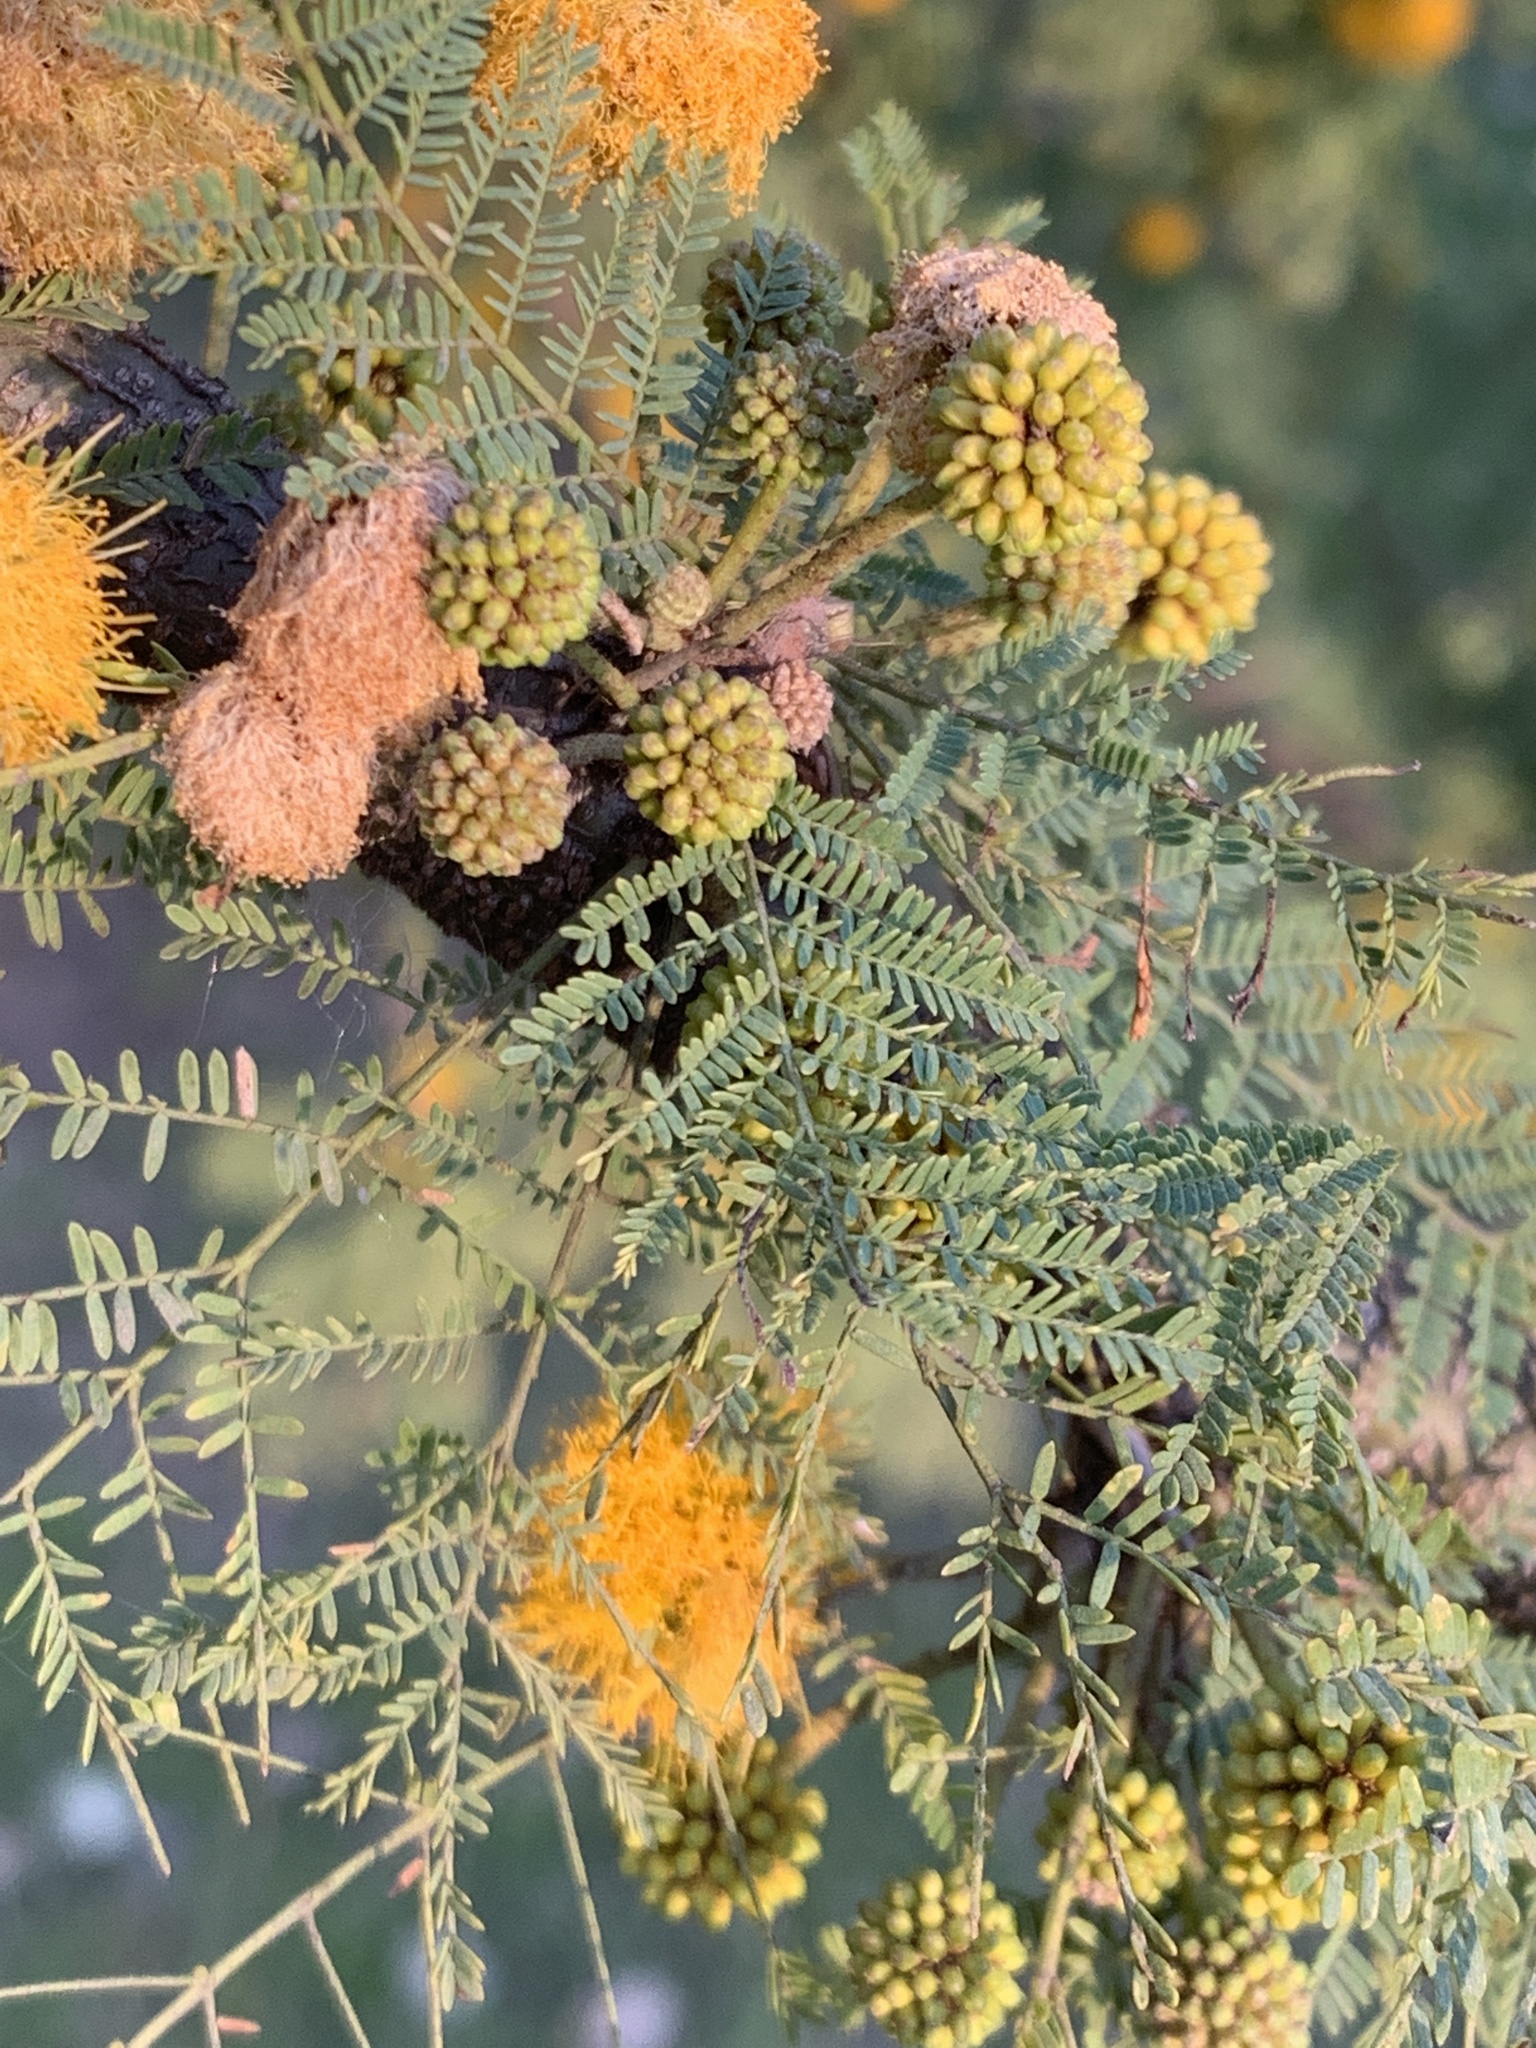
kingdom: Plantae
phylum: Tracheophyta
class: Magnoliopsida
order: Fabales
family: Fabaceae
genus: Vachellia
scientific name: Vachellia caven
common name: Roman cassie
